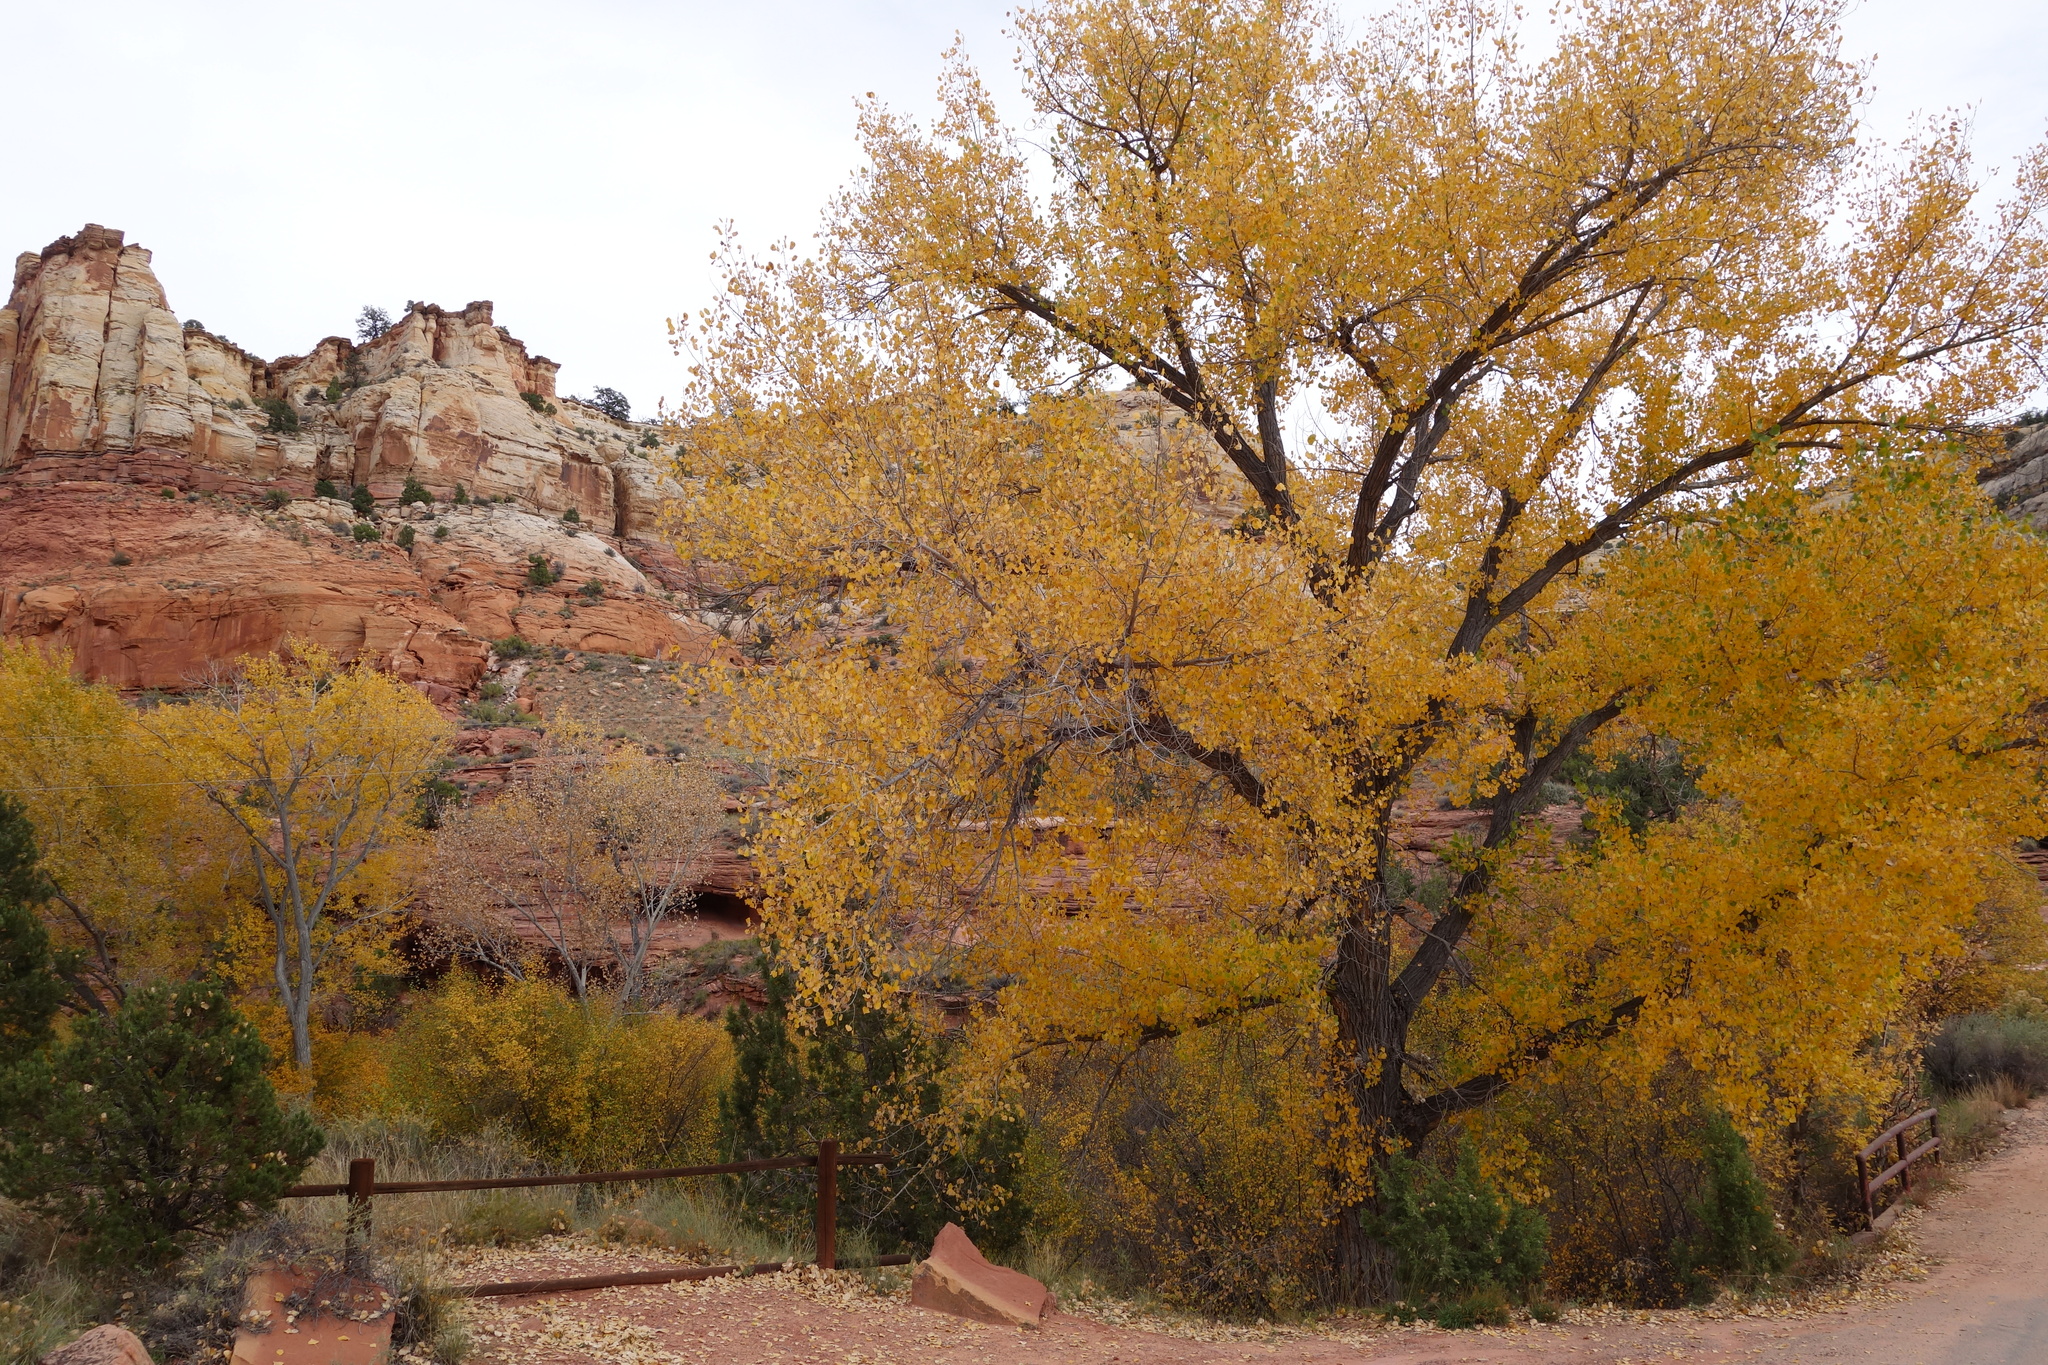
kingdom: Plantae
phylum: Tracheophyta
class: Magnoliopsida
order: Malpighiales
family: Salicaceae
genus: Populus
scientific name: Populus fremontii
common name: Fremont's cottonwood
